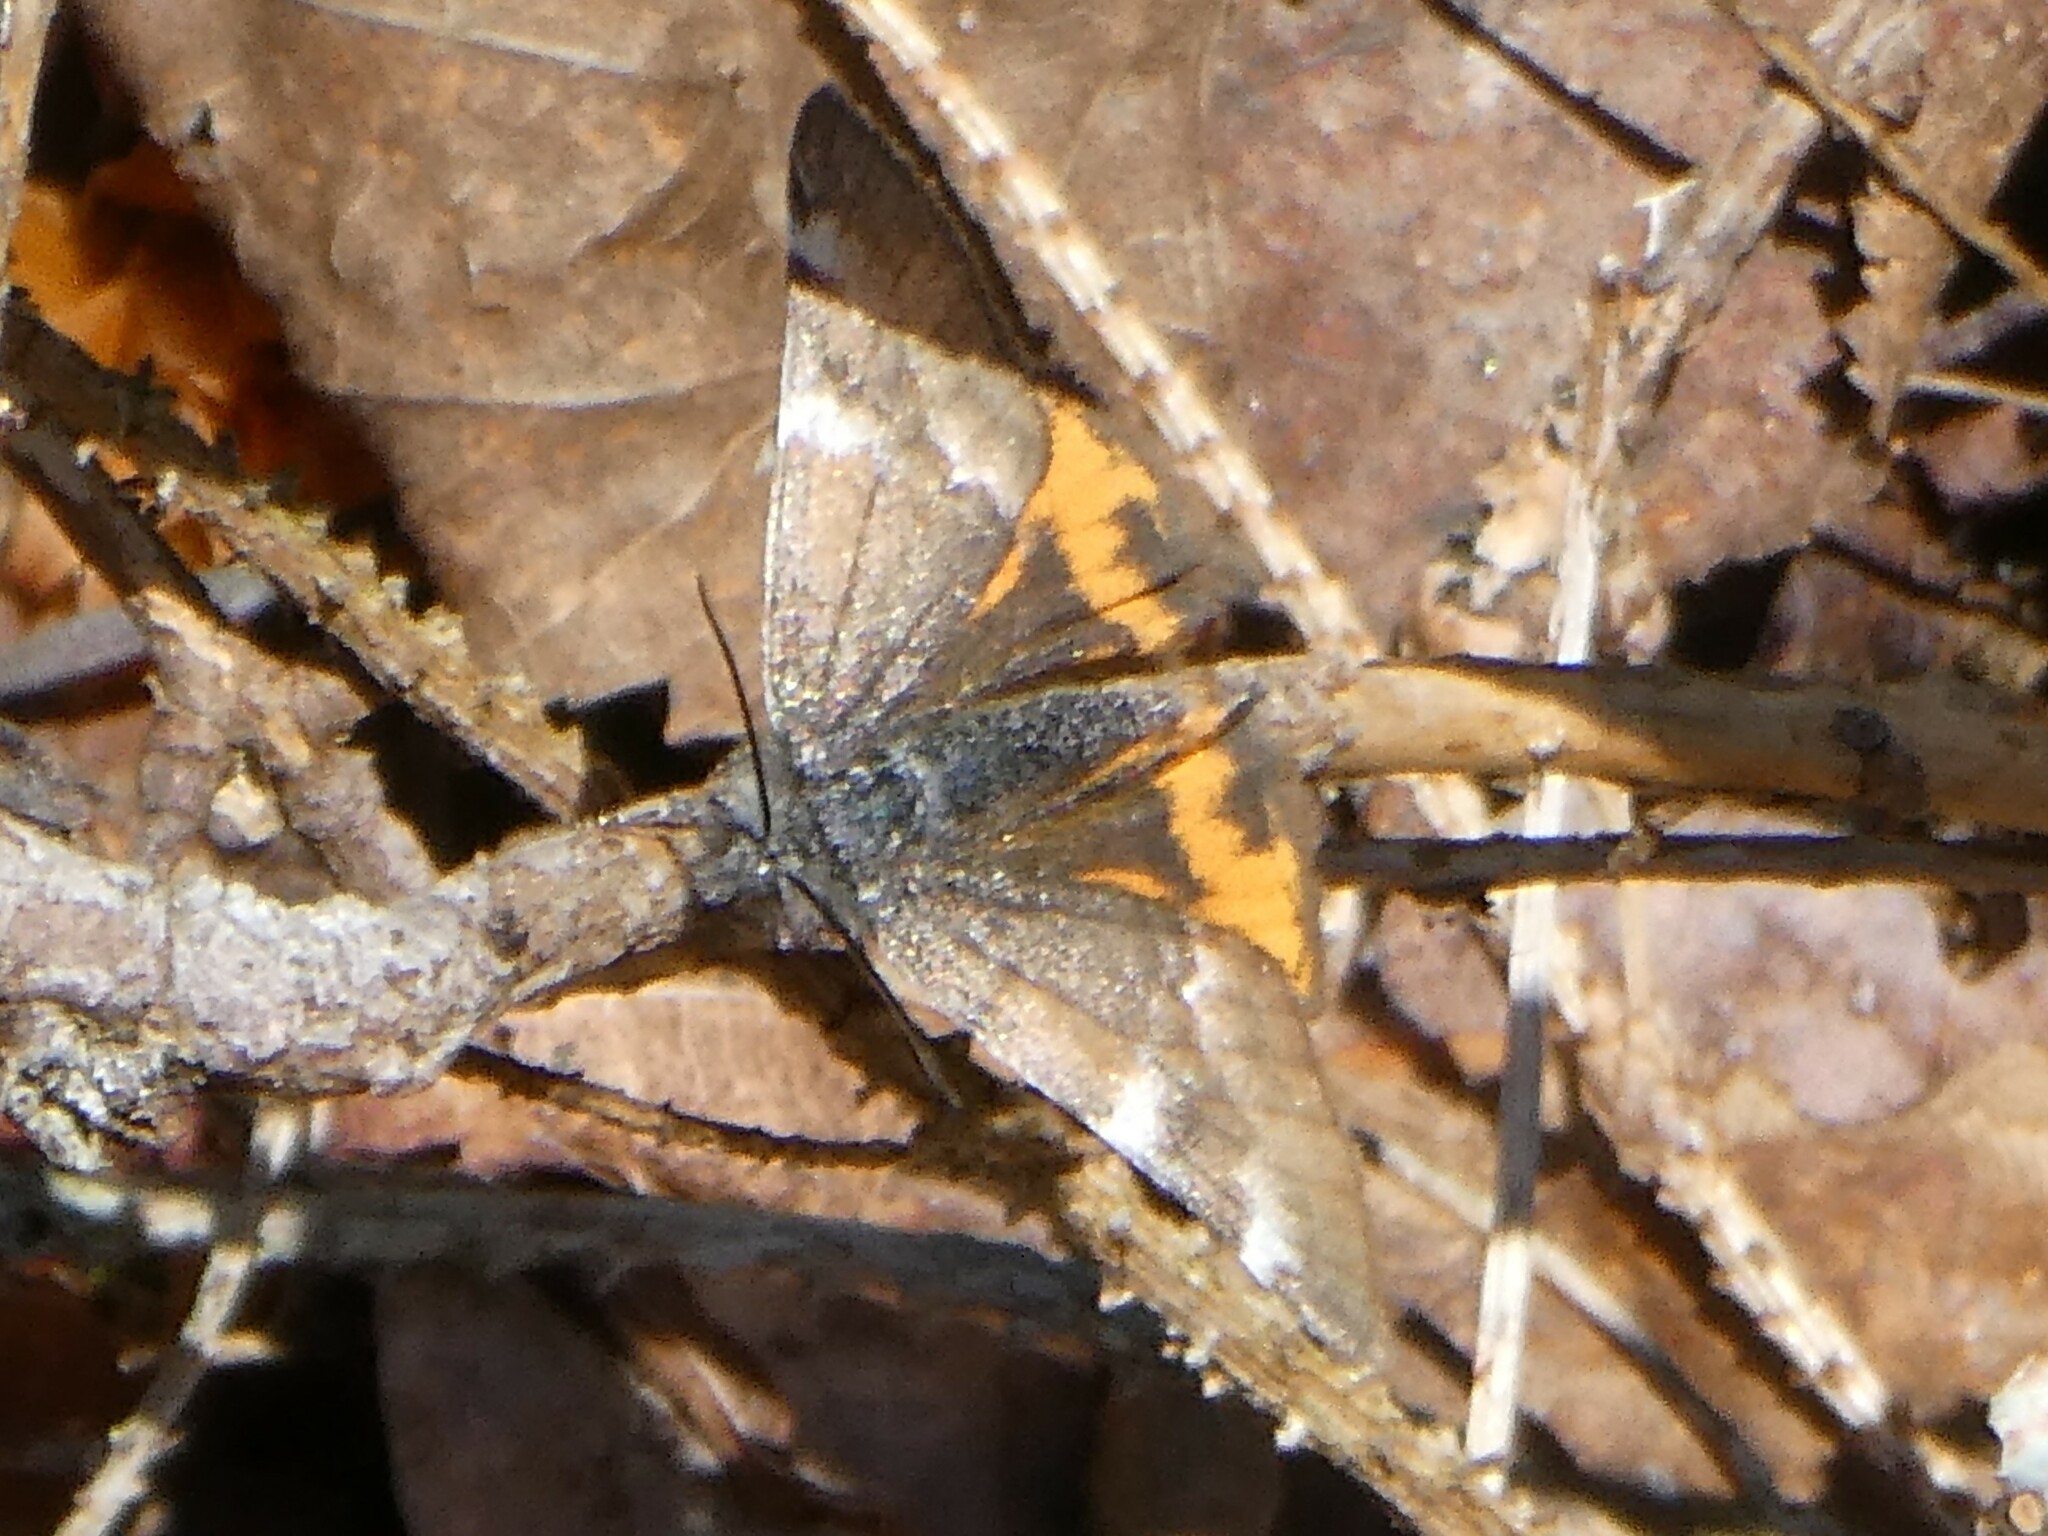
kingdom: Animalia
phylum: Arthropoda
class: Insecta
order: Lepidoptera
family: Geometridae
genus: Archiearis
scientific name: Archiearis infans
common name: First born geometer
